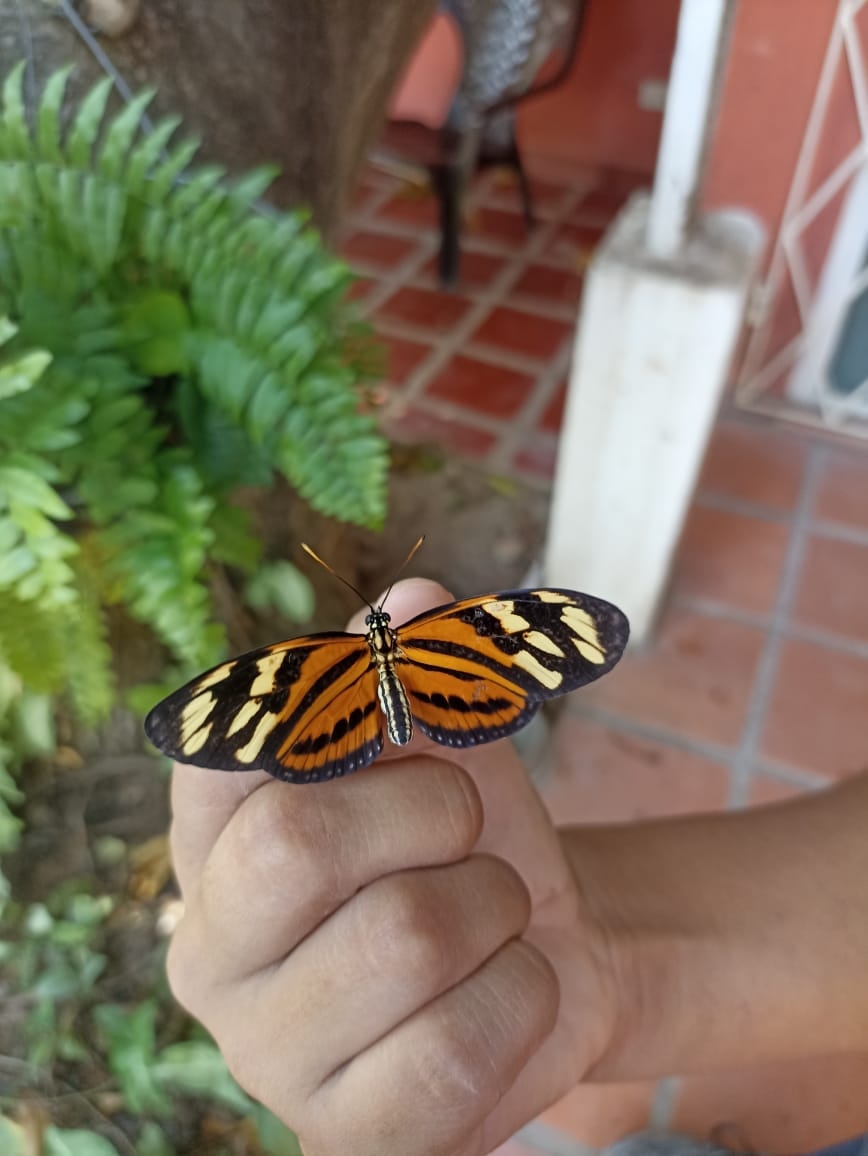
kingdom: Animalia
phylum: Arthropoda
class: Insecta
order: Lepidoptera
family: Nymphalidae
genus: Eueides
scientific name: Eueides isabella
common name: Isabella's longwing
